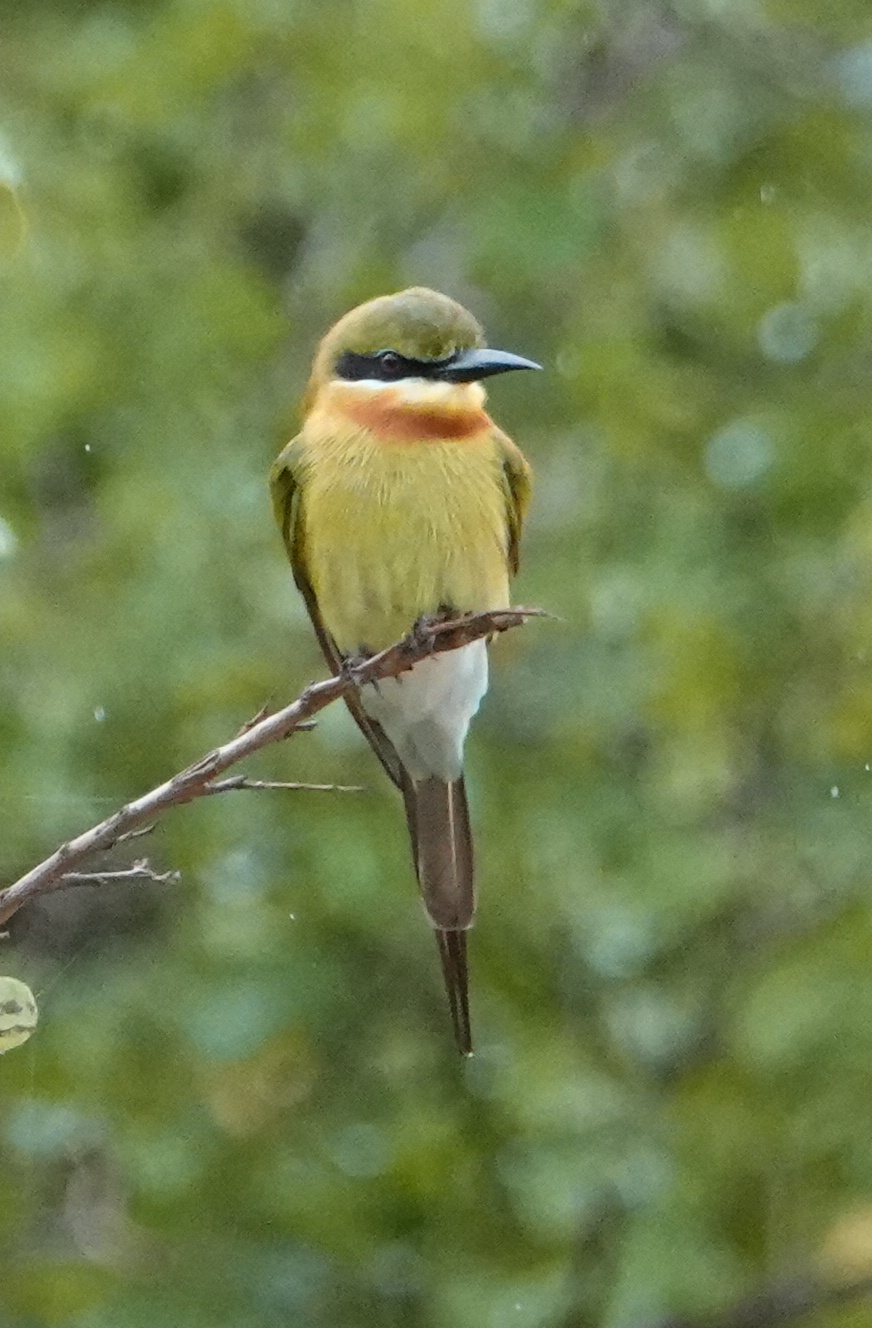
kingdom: Animalia
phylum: Chordata
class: Aves
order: Coraciiformes
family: Meropidae
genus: Merops
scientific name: Merops philippinus
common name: Blue-tailed bee-eater
